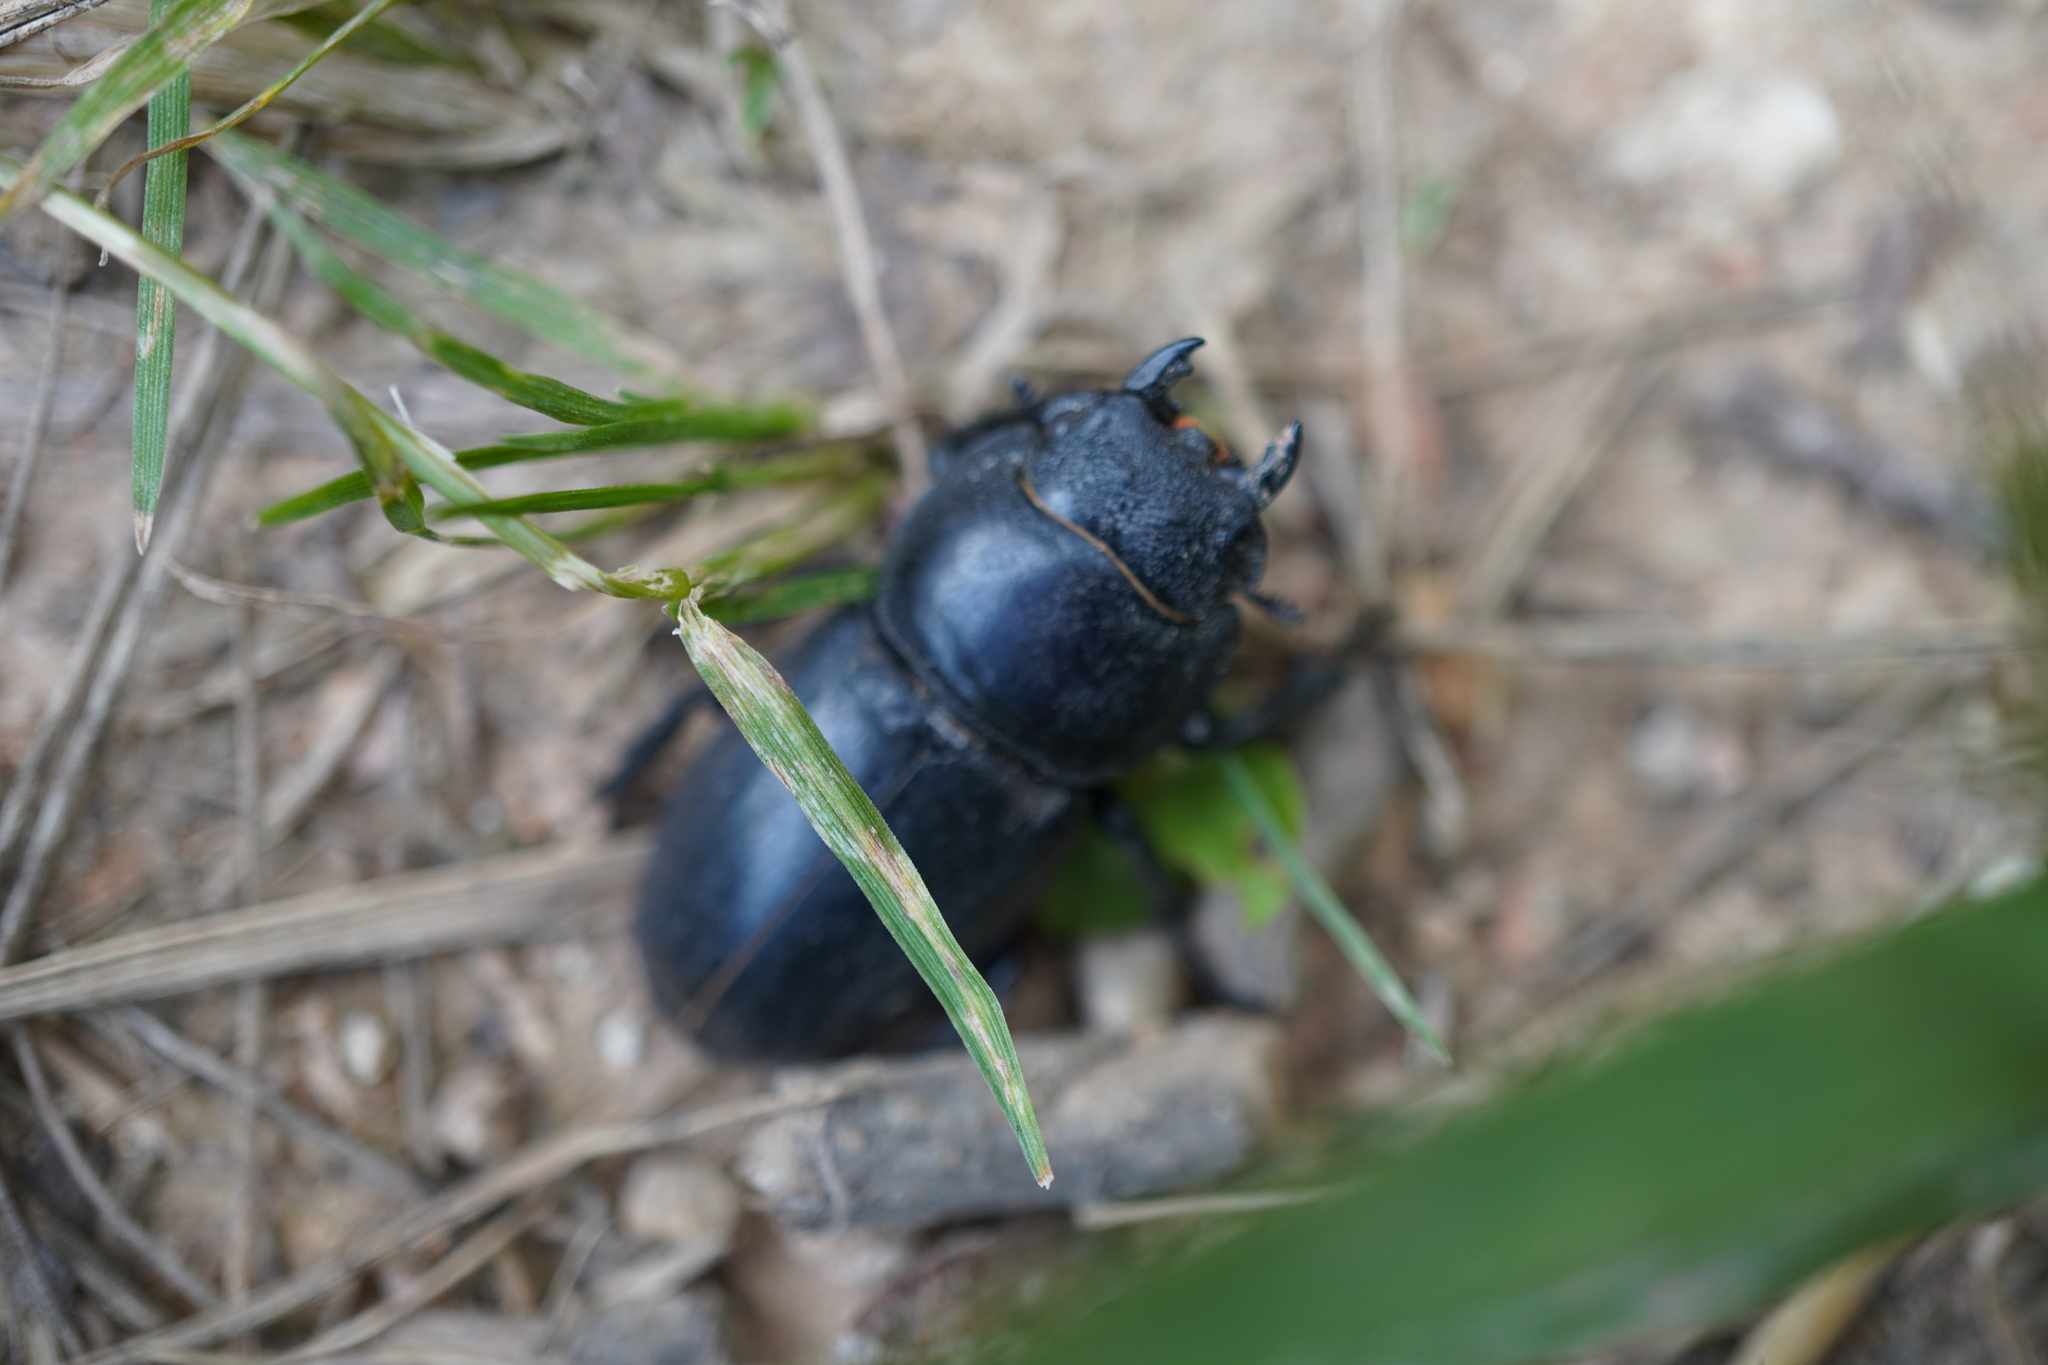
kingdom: Animalia
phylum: Arthropoda
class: Insecta
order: Coleoptera
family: Lucanidae
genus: Serrognathus
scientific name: Serrognathus titanus
